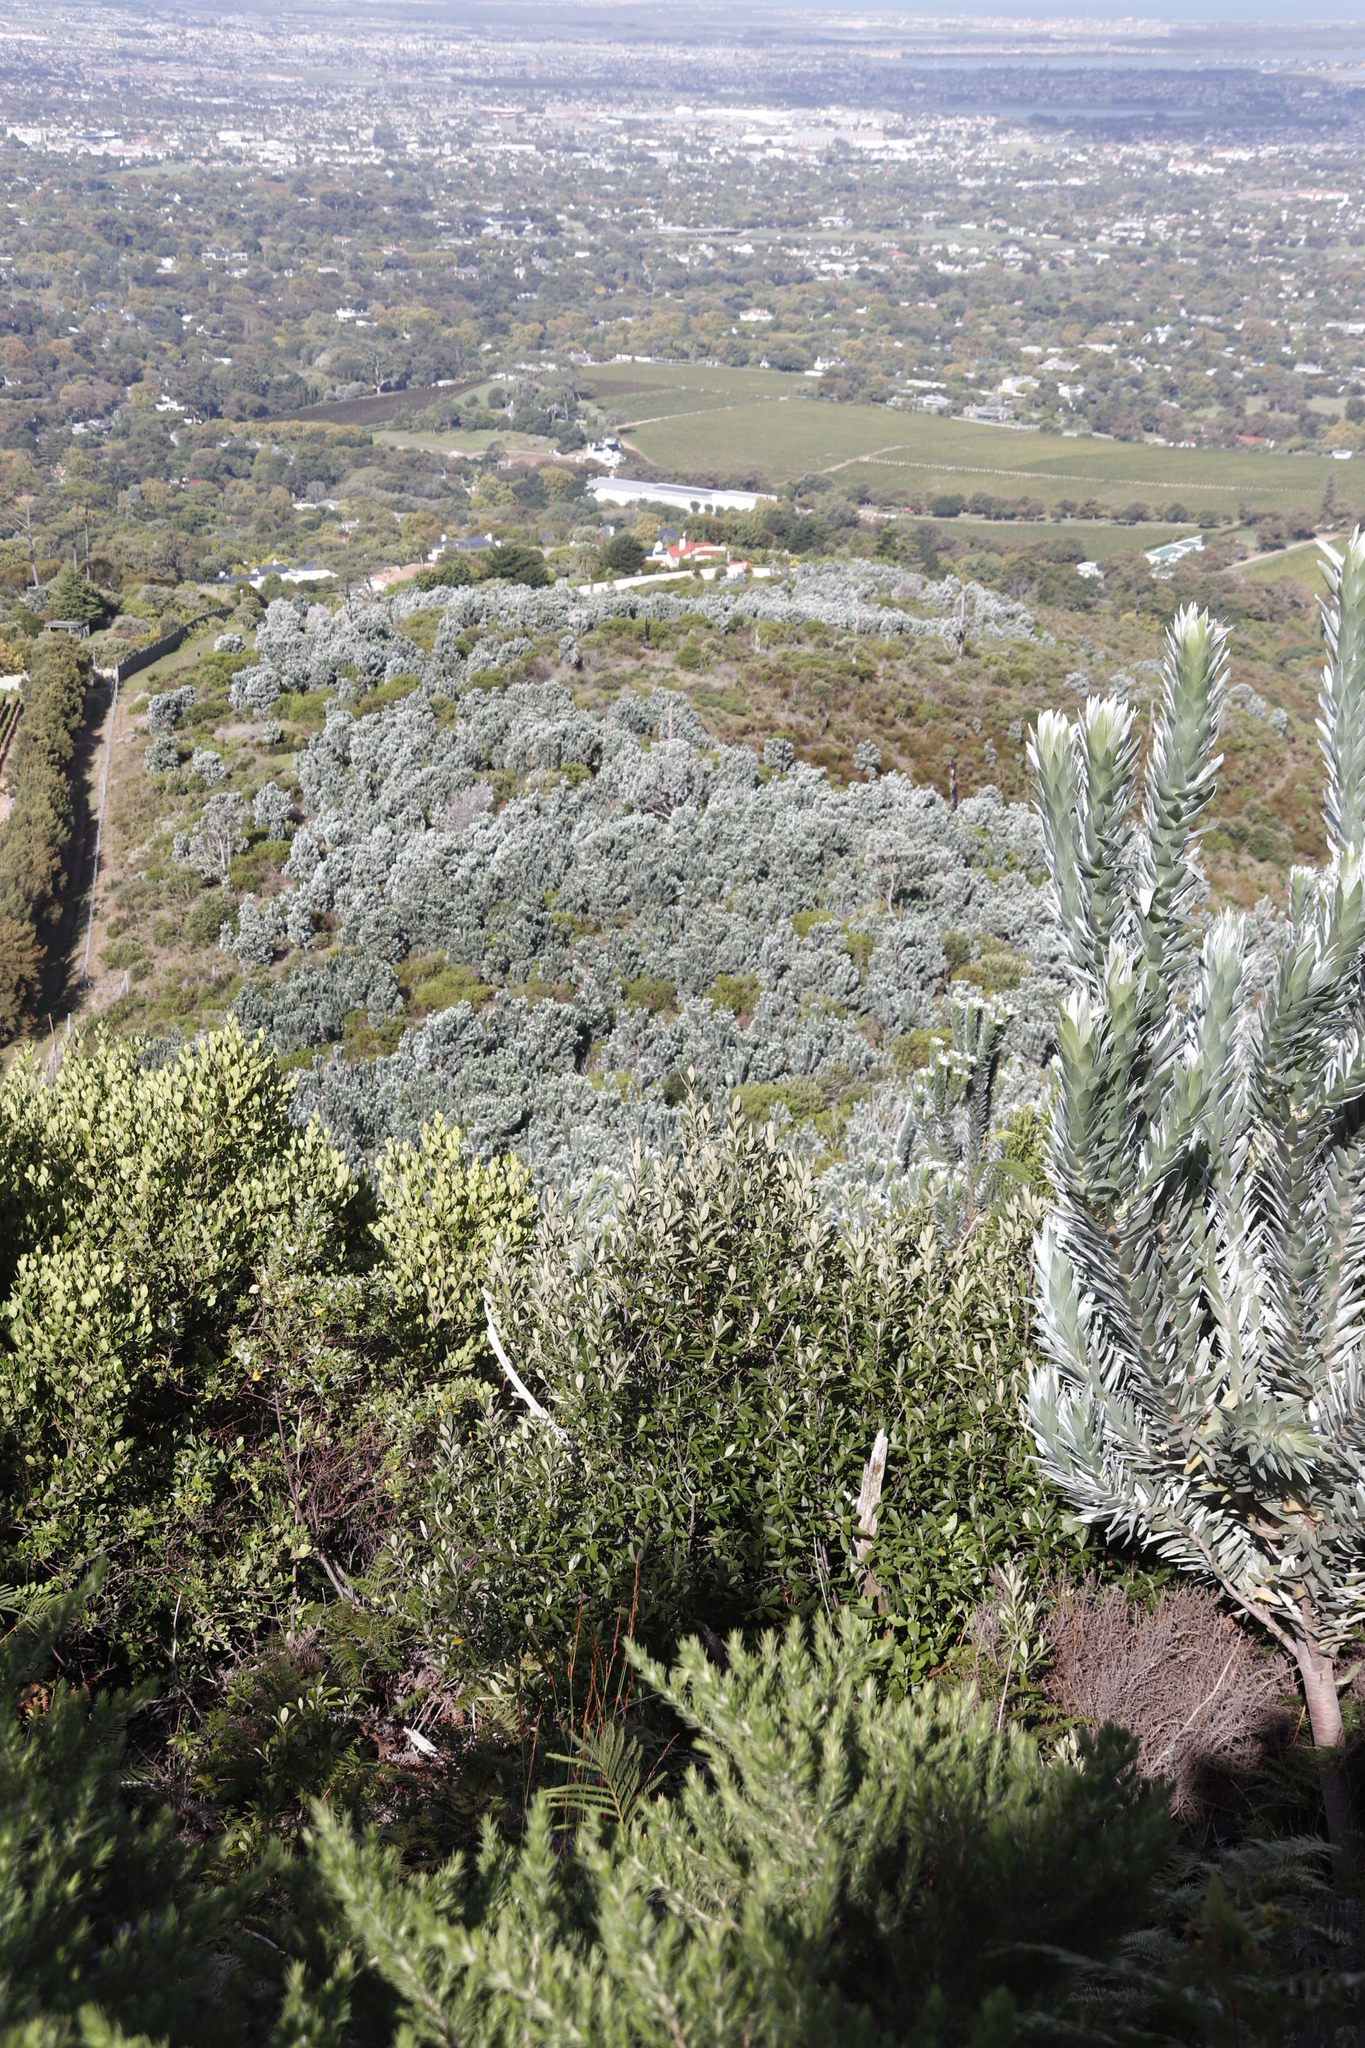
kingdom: Plantae
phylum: Tracheophyta
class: Magnoliopsida
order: Proteales
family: Proteaceae
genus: Leucadendron
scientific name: Leucadendron argenteum
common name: Cape silver tree
